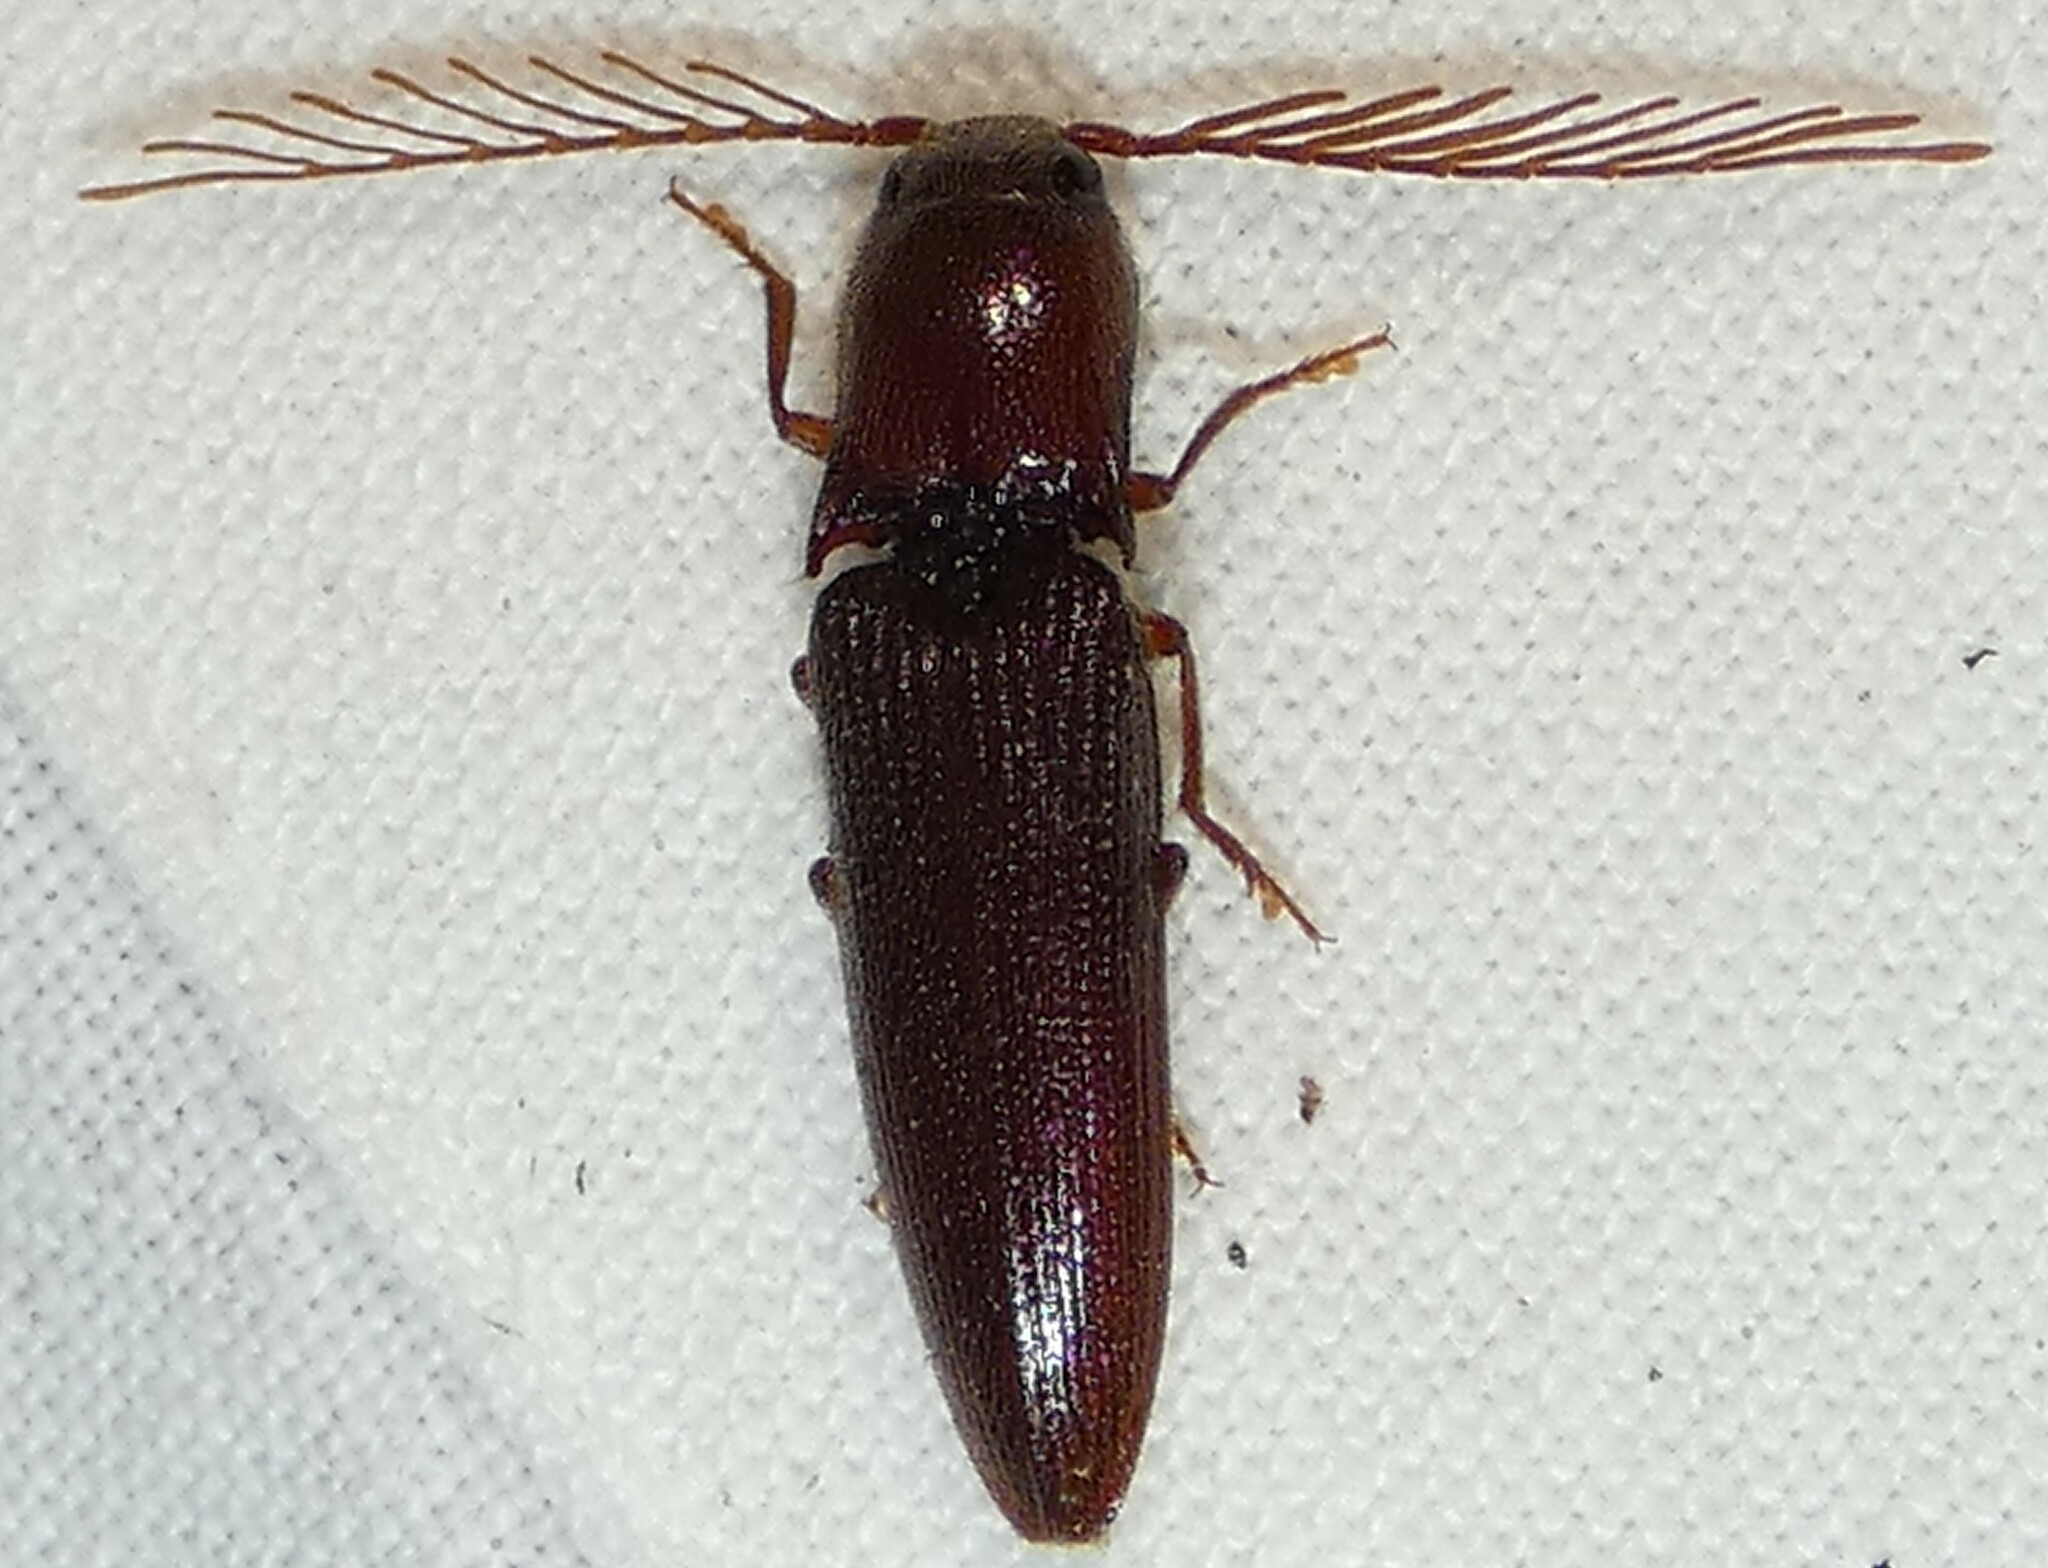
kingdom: Animalia
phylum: Arthropoda
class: Insecta
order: Coleoptera
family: Elateridae
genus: Dicrepidius
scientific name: Dicrepidius palmatus
